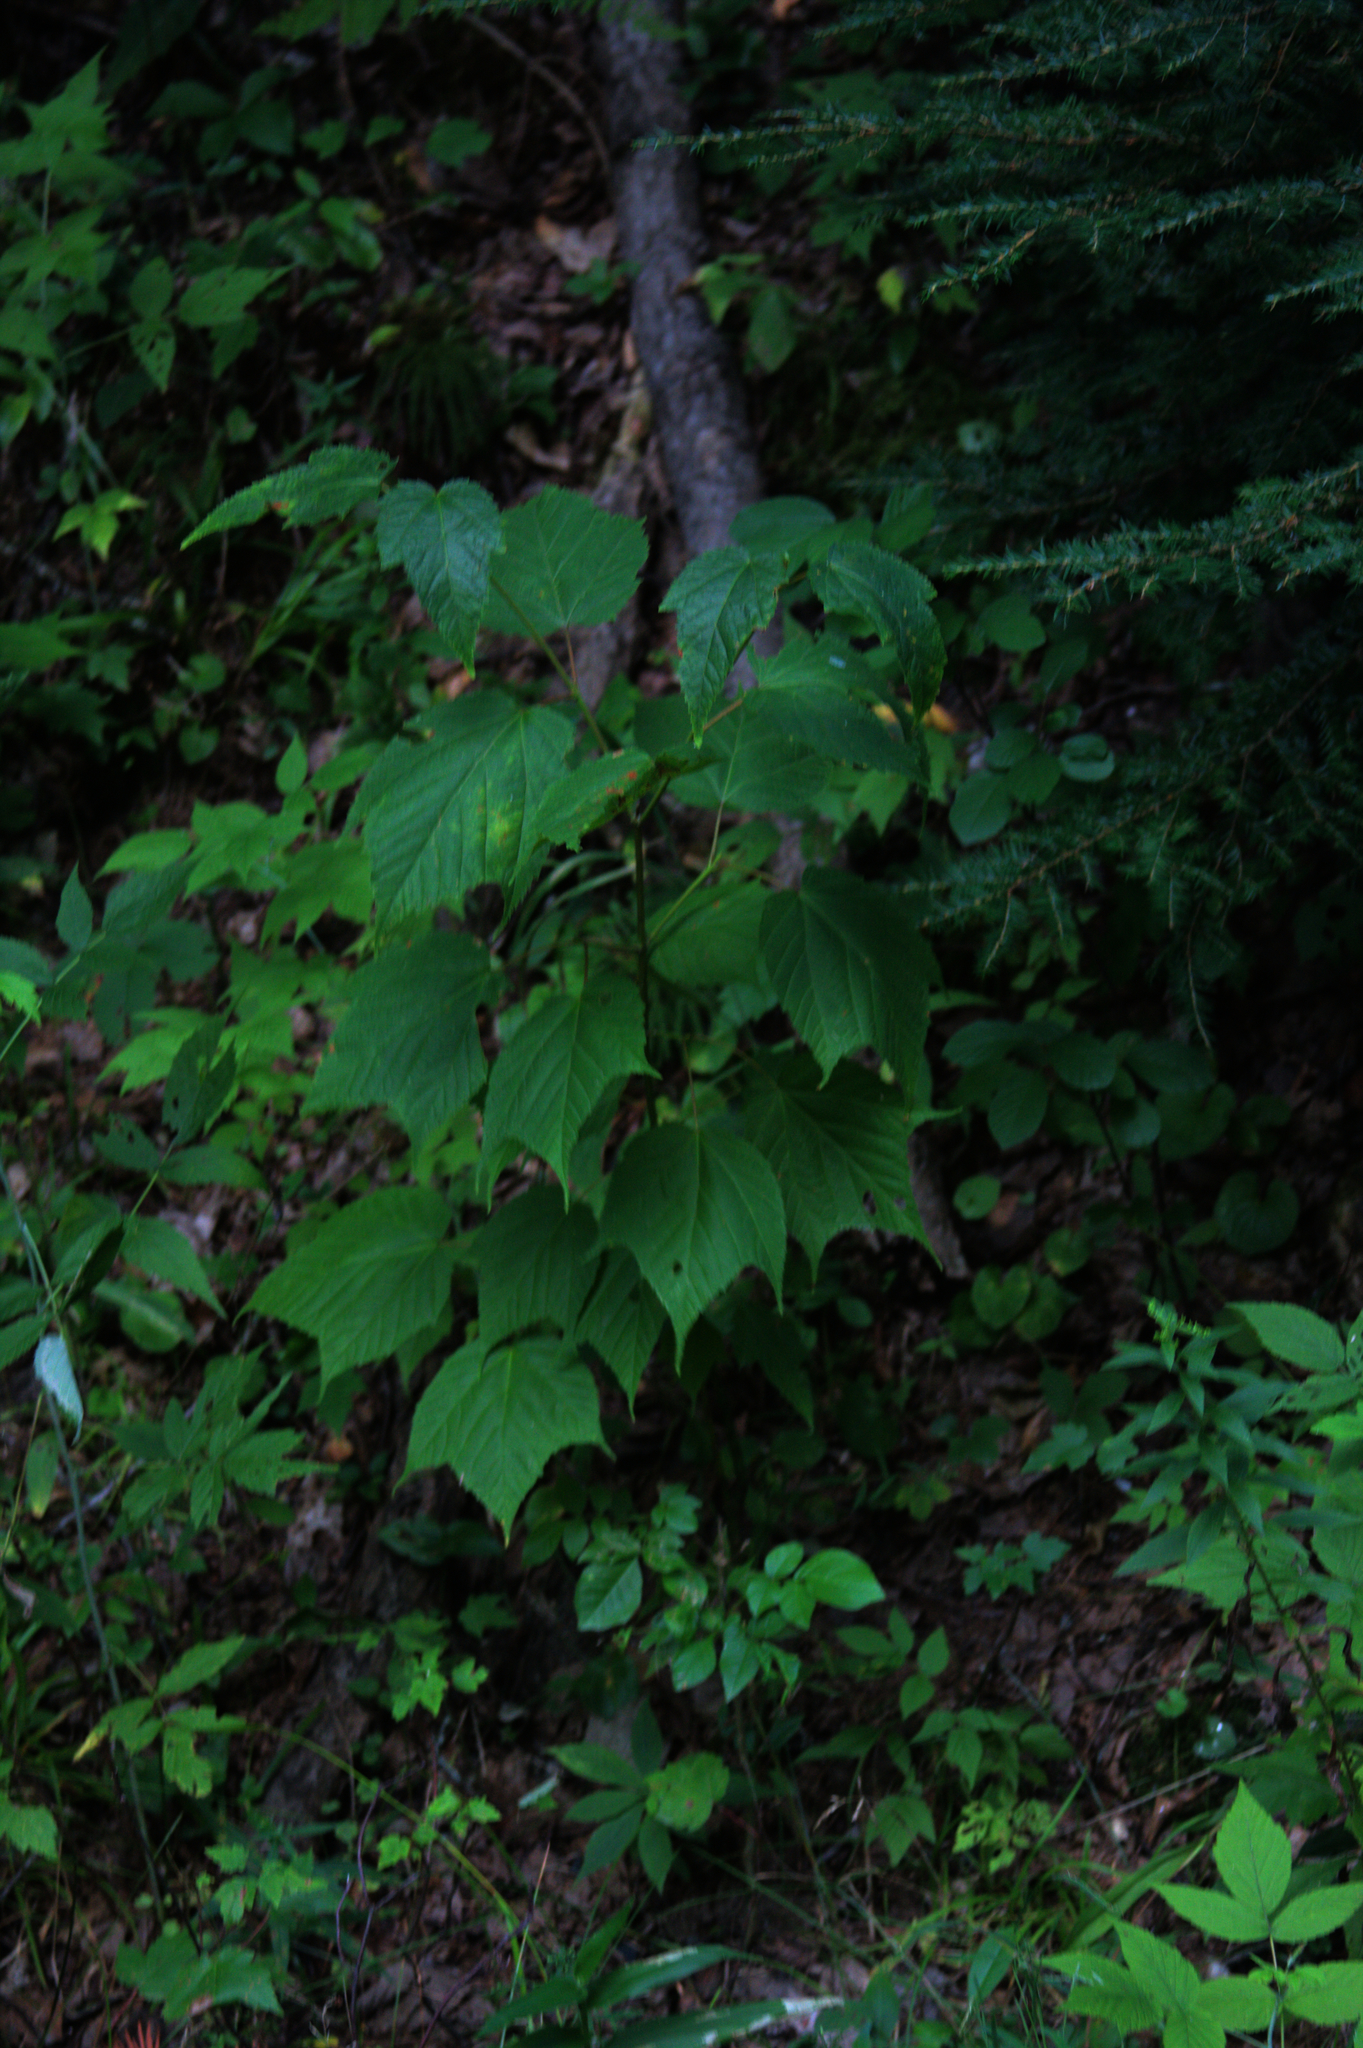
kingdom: Plantae
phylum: Tracheophyta
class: Magnoliopsida
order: Sapindales
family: Sapindaceae
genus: Acer
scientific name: Acer pensylvanicum
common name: Moosewood
